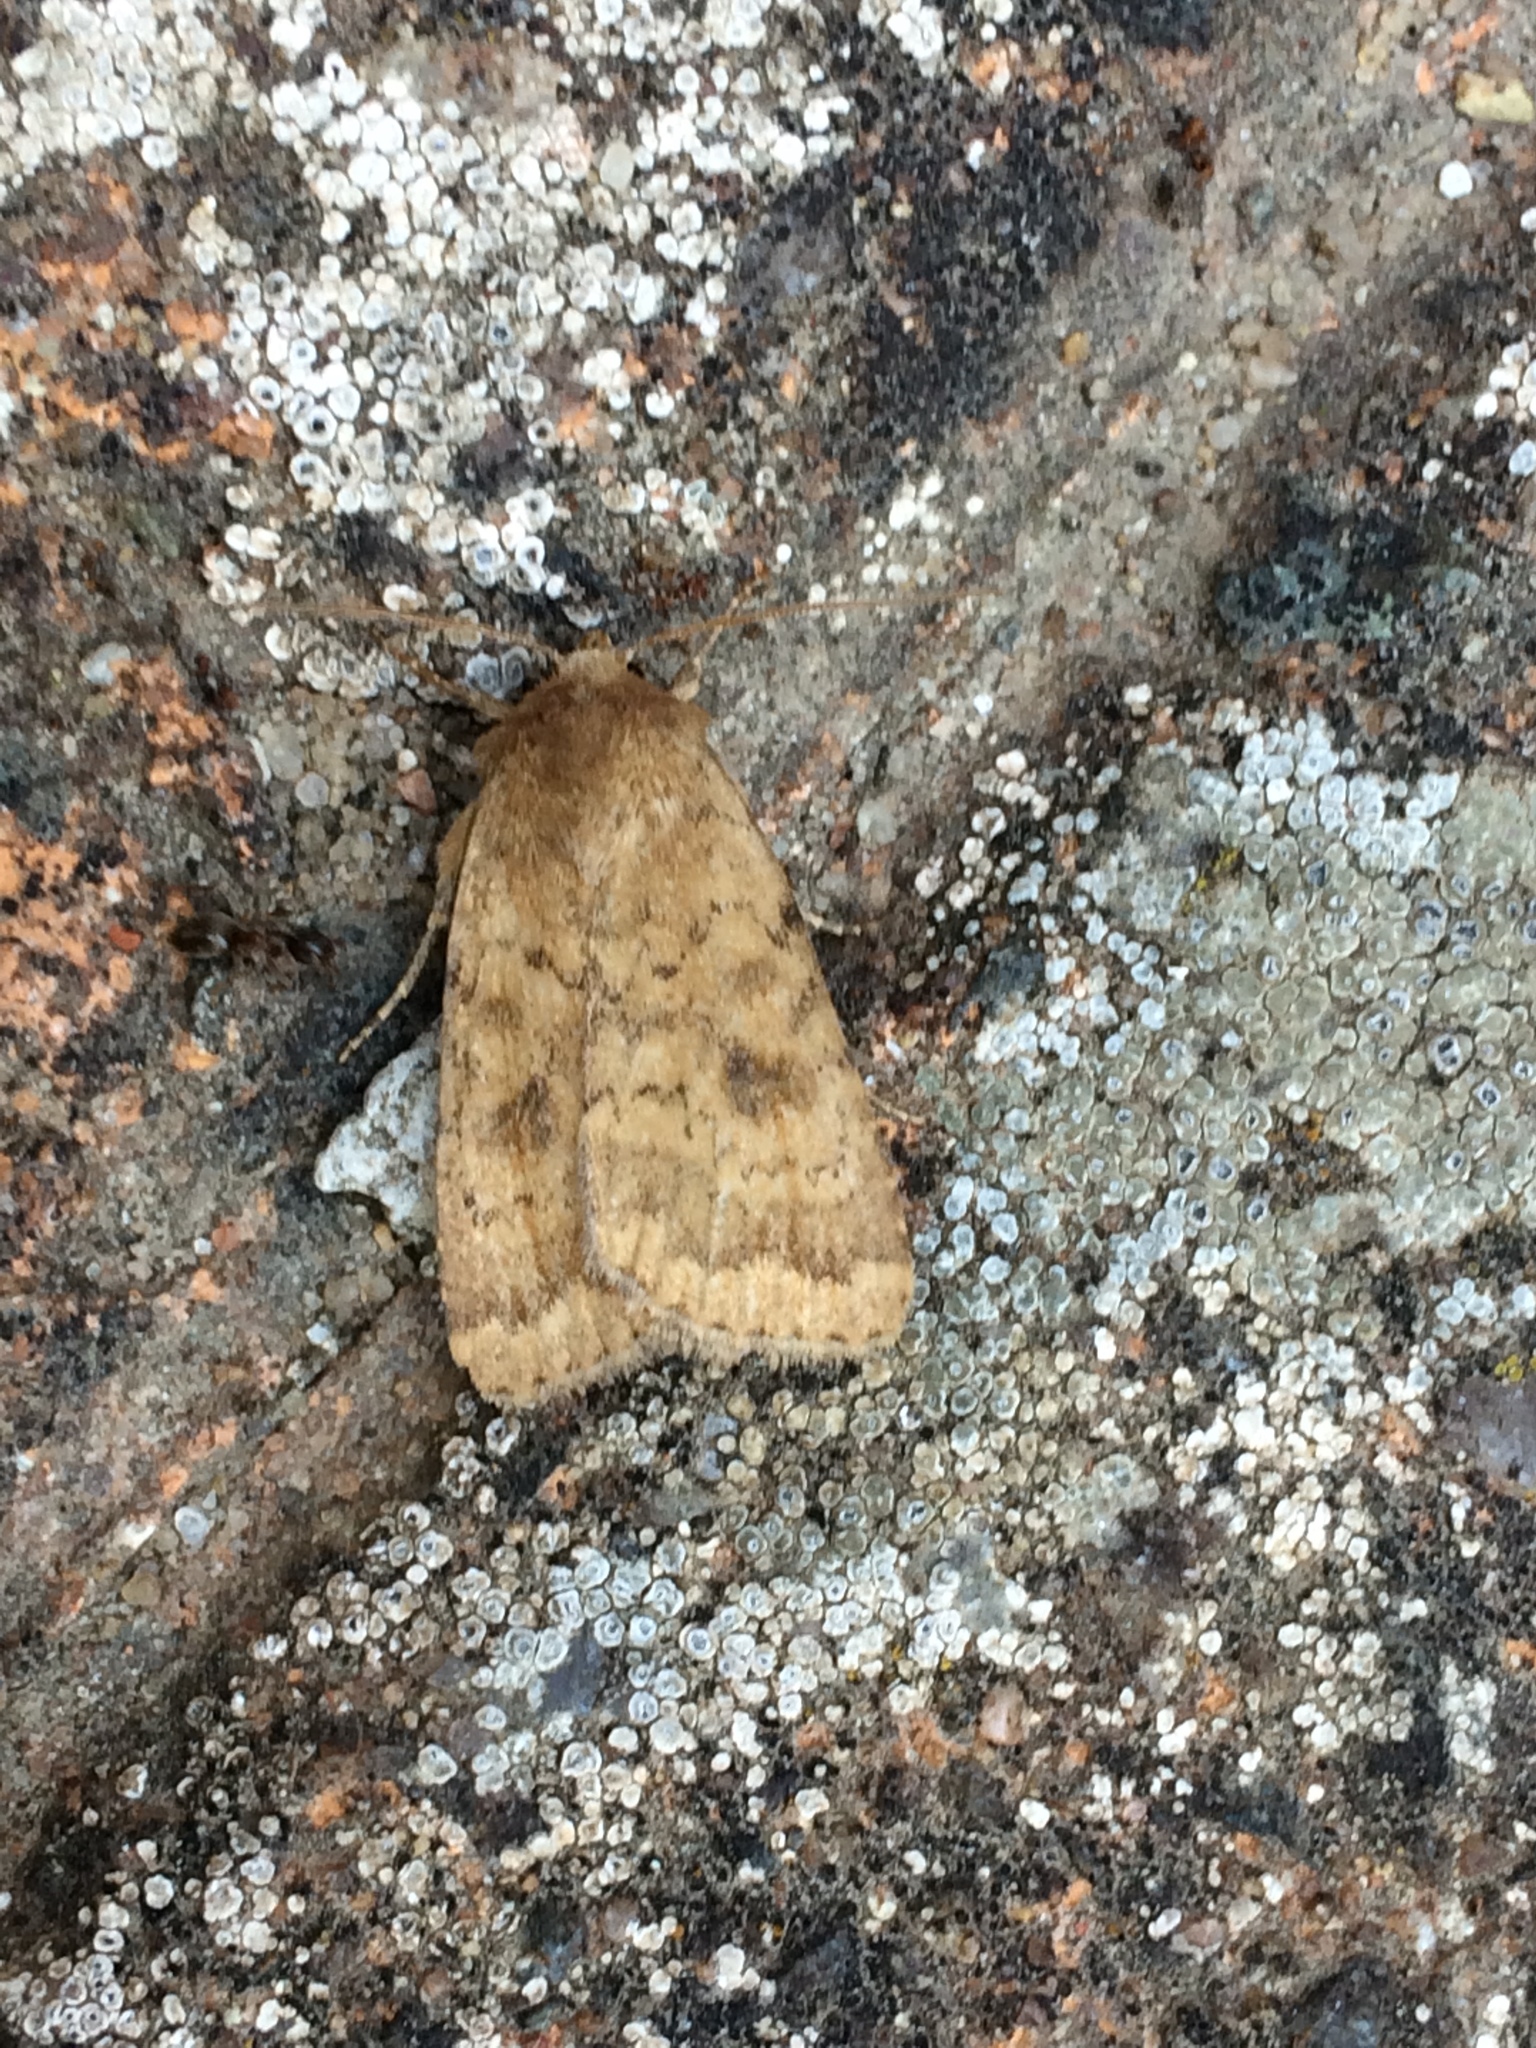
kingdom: Animalia
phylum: Arthropoda
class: Insecta
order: Lepidoptera
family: Noctuidae
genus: Caradrina
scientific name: Caradrina morpheus
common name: Mottled rustic
